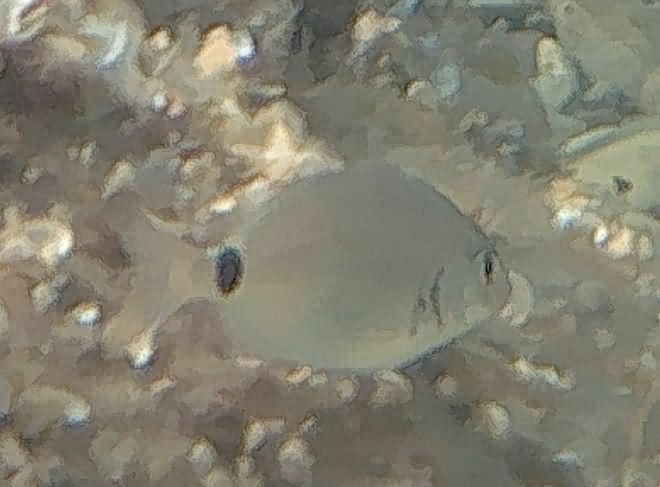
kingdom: Animalia
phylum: Chordata
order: Perciformes
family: Sparidae
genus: Diplodus
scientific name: Diplodus sargus
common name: White seabream
